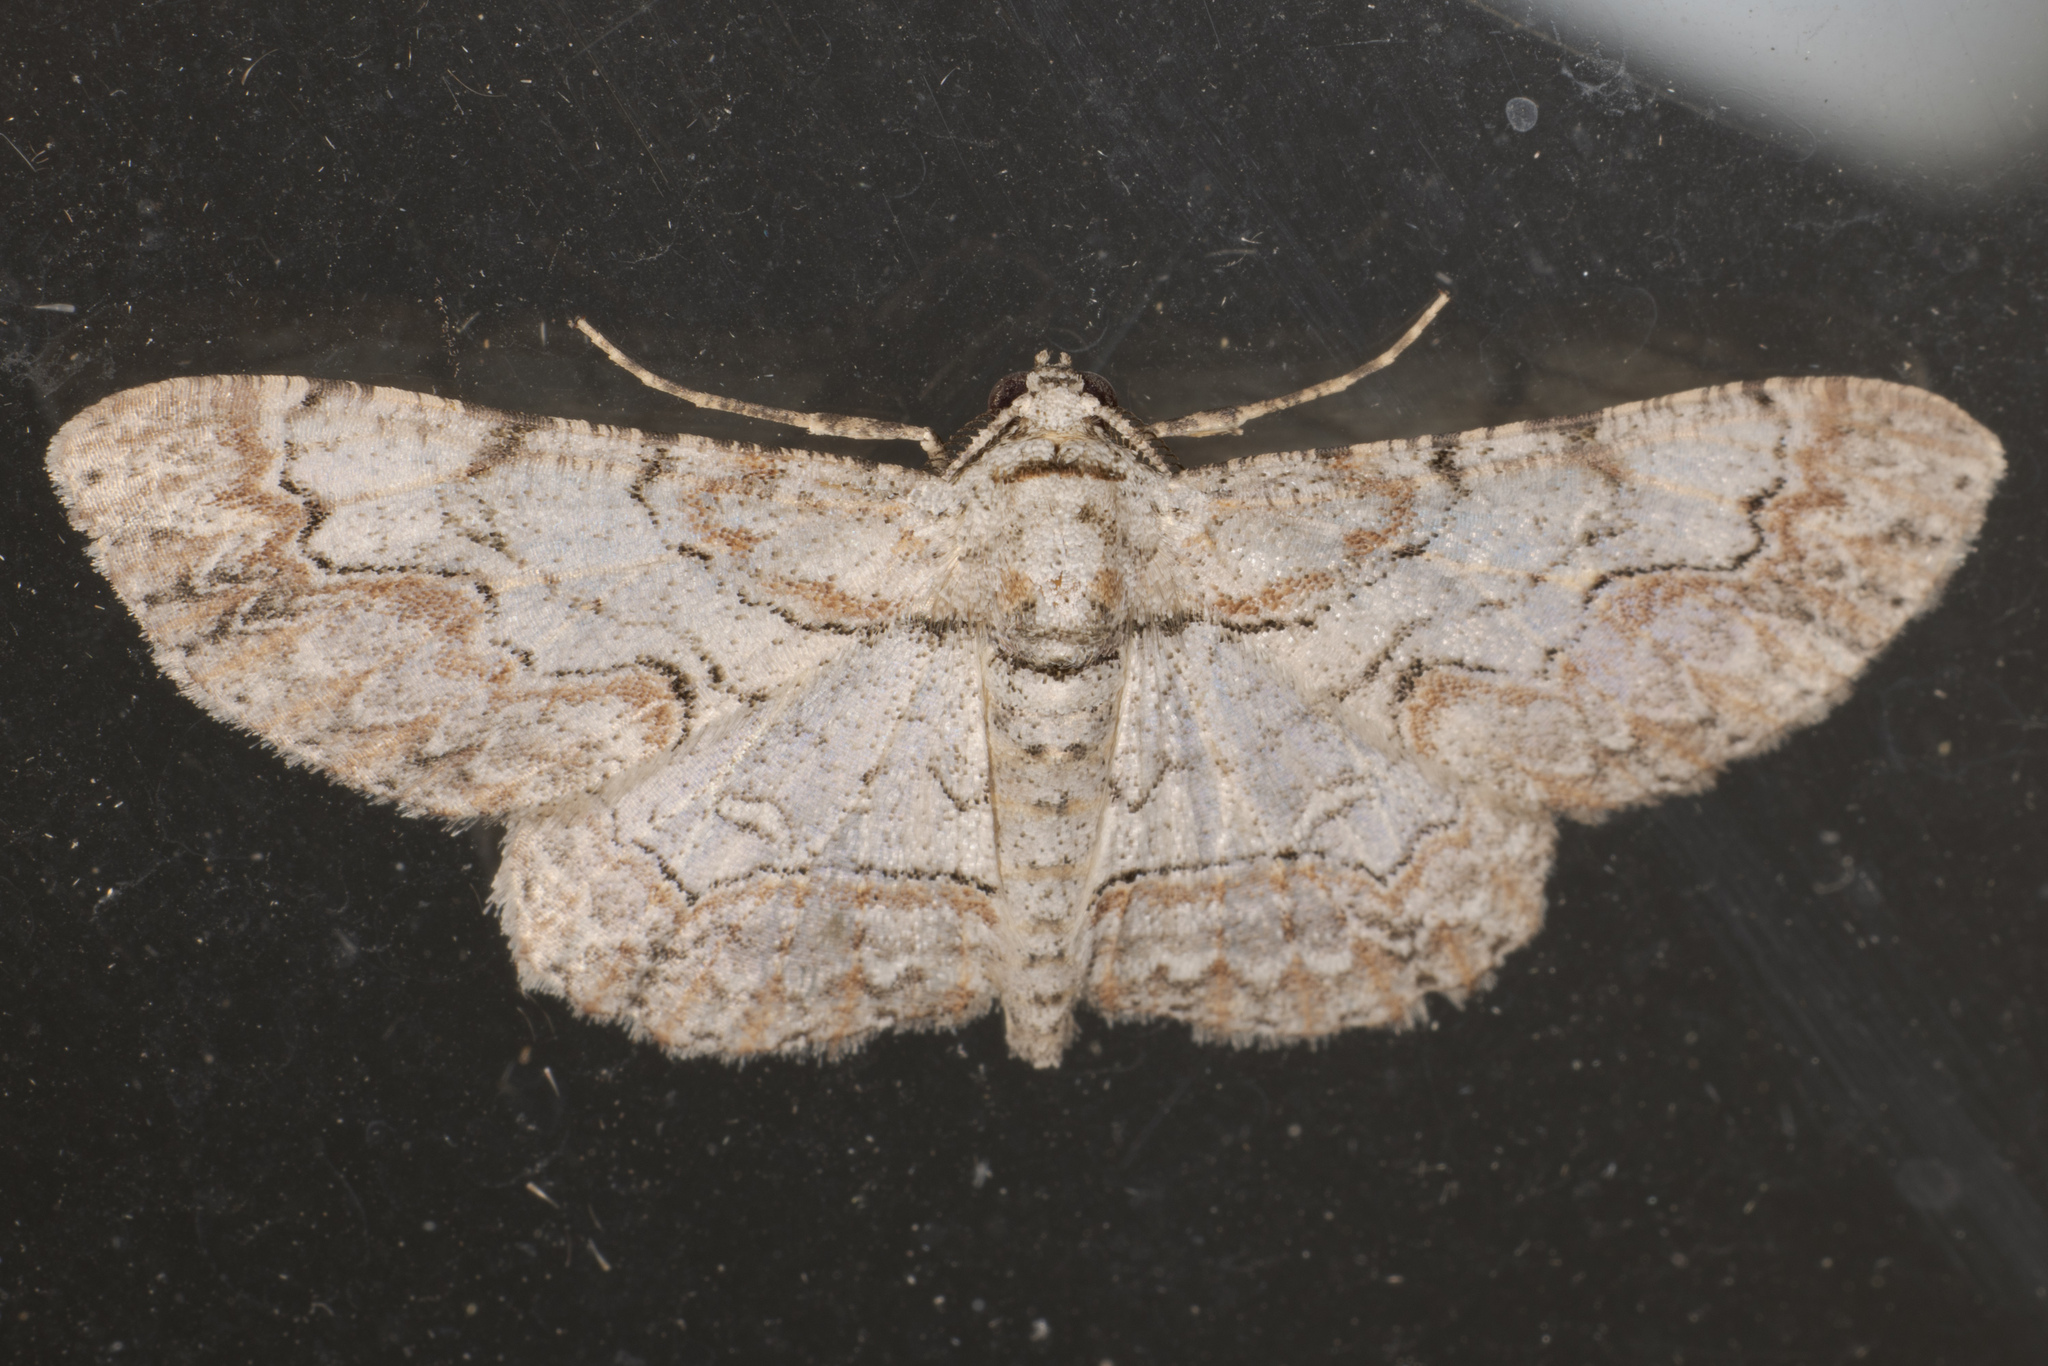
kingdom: Animalia
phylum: Arthropoda
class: Insecta
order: Lepidoptera
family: Geometridae
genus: Iridopsis
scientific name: Iridopsis defectaria
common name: Brown-shaded gray
